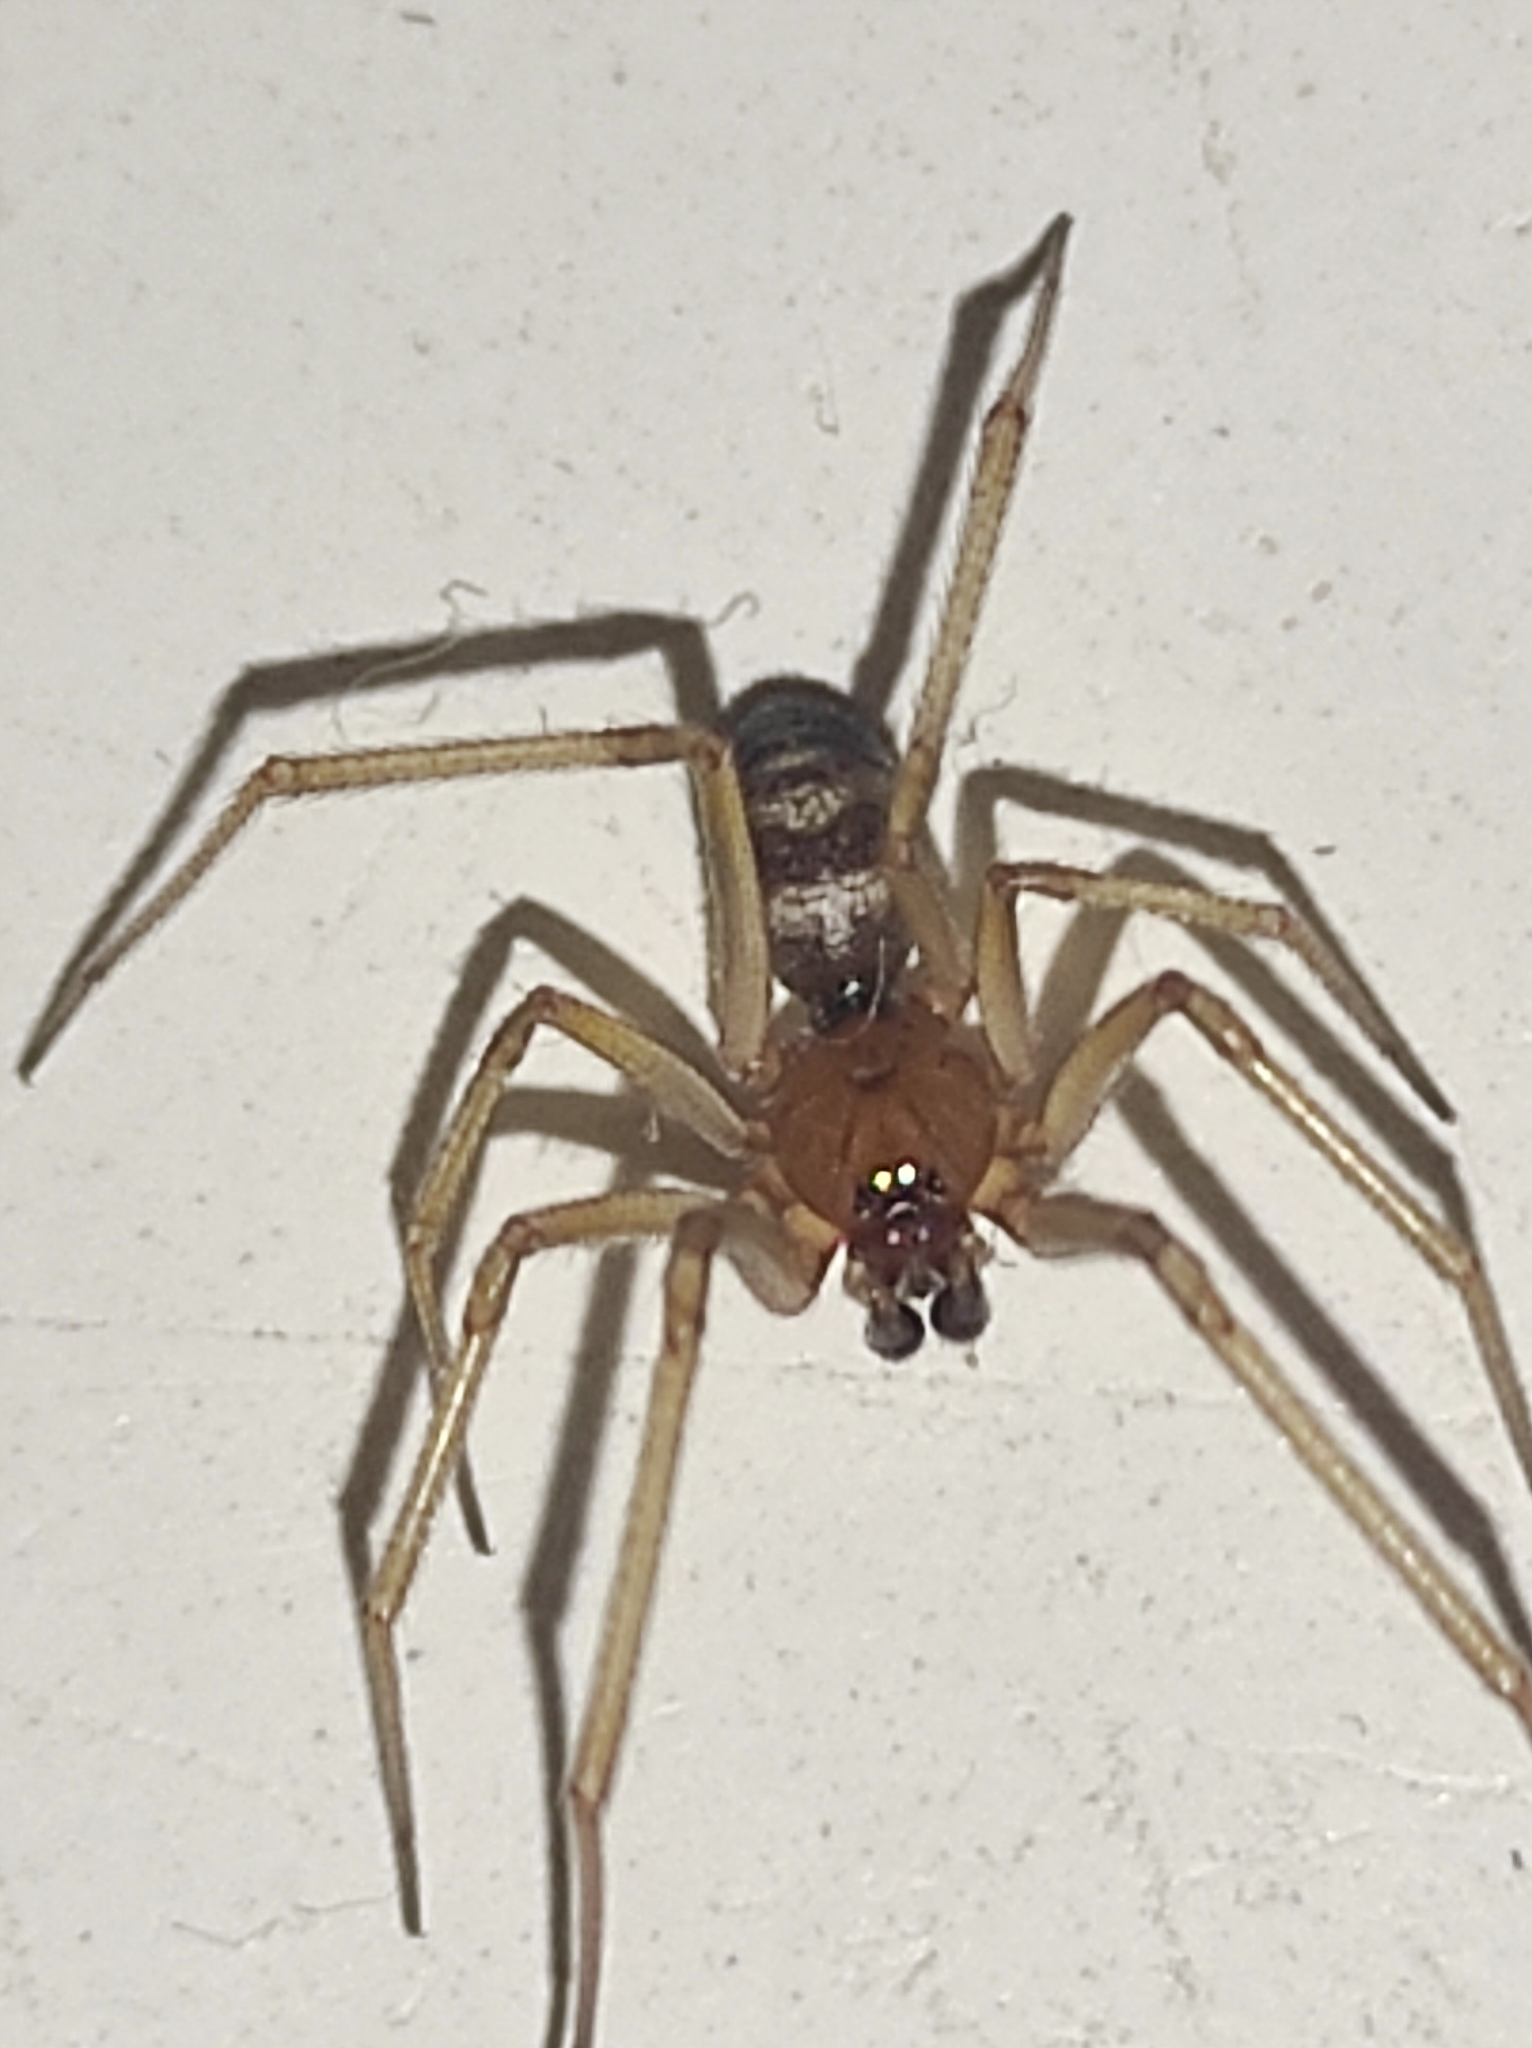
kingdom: Animalia
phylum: Arthropoda
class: Arachnida
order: Araneae
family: Theridiidae
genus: Steatoda
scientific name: Steatoda grossa
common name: False black widow
